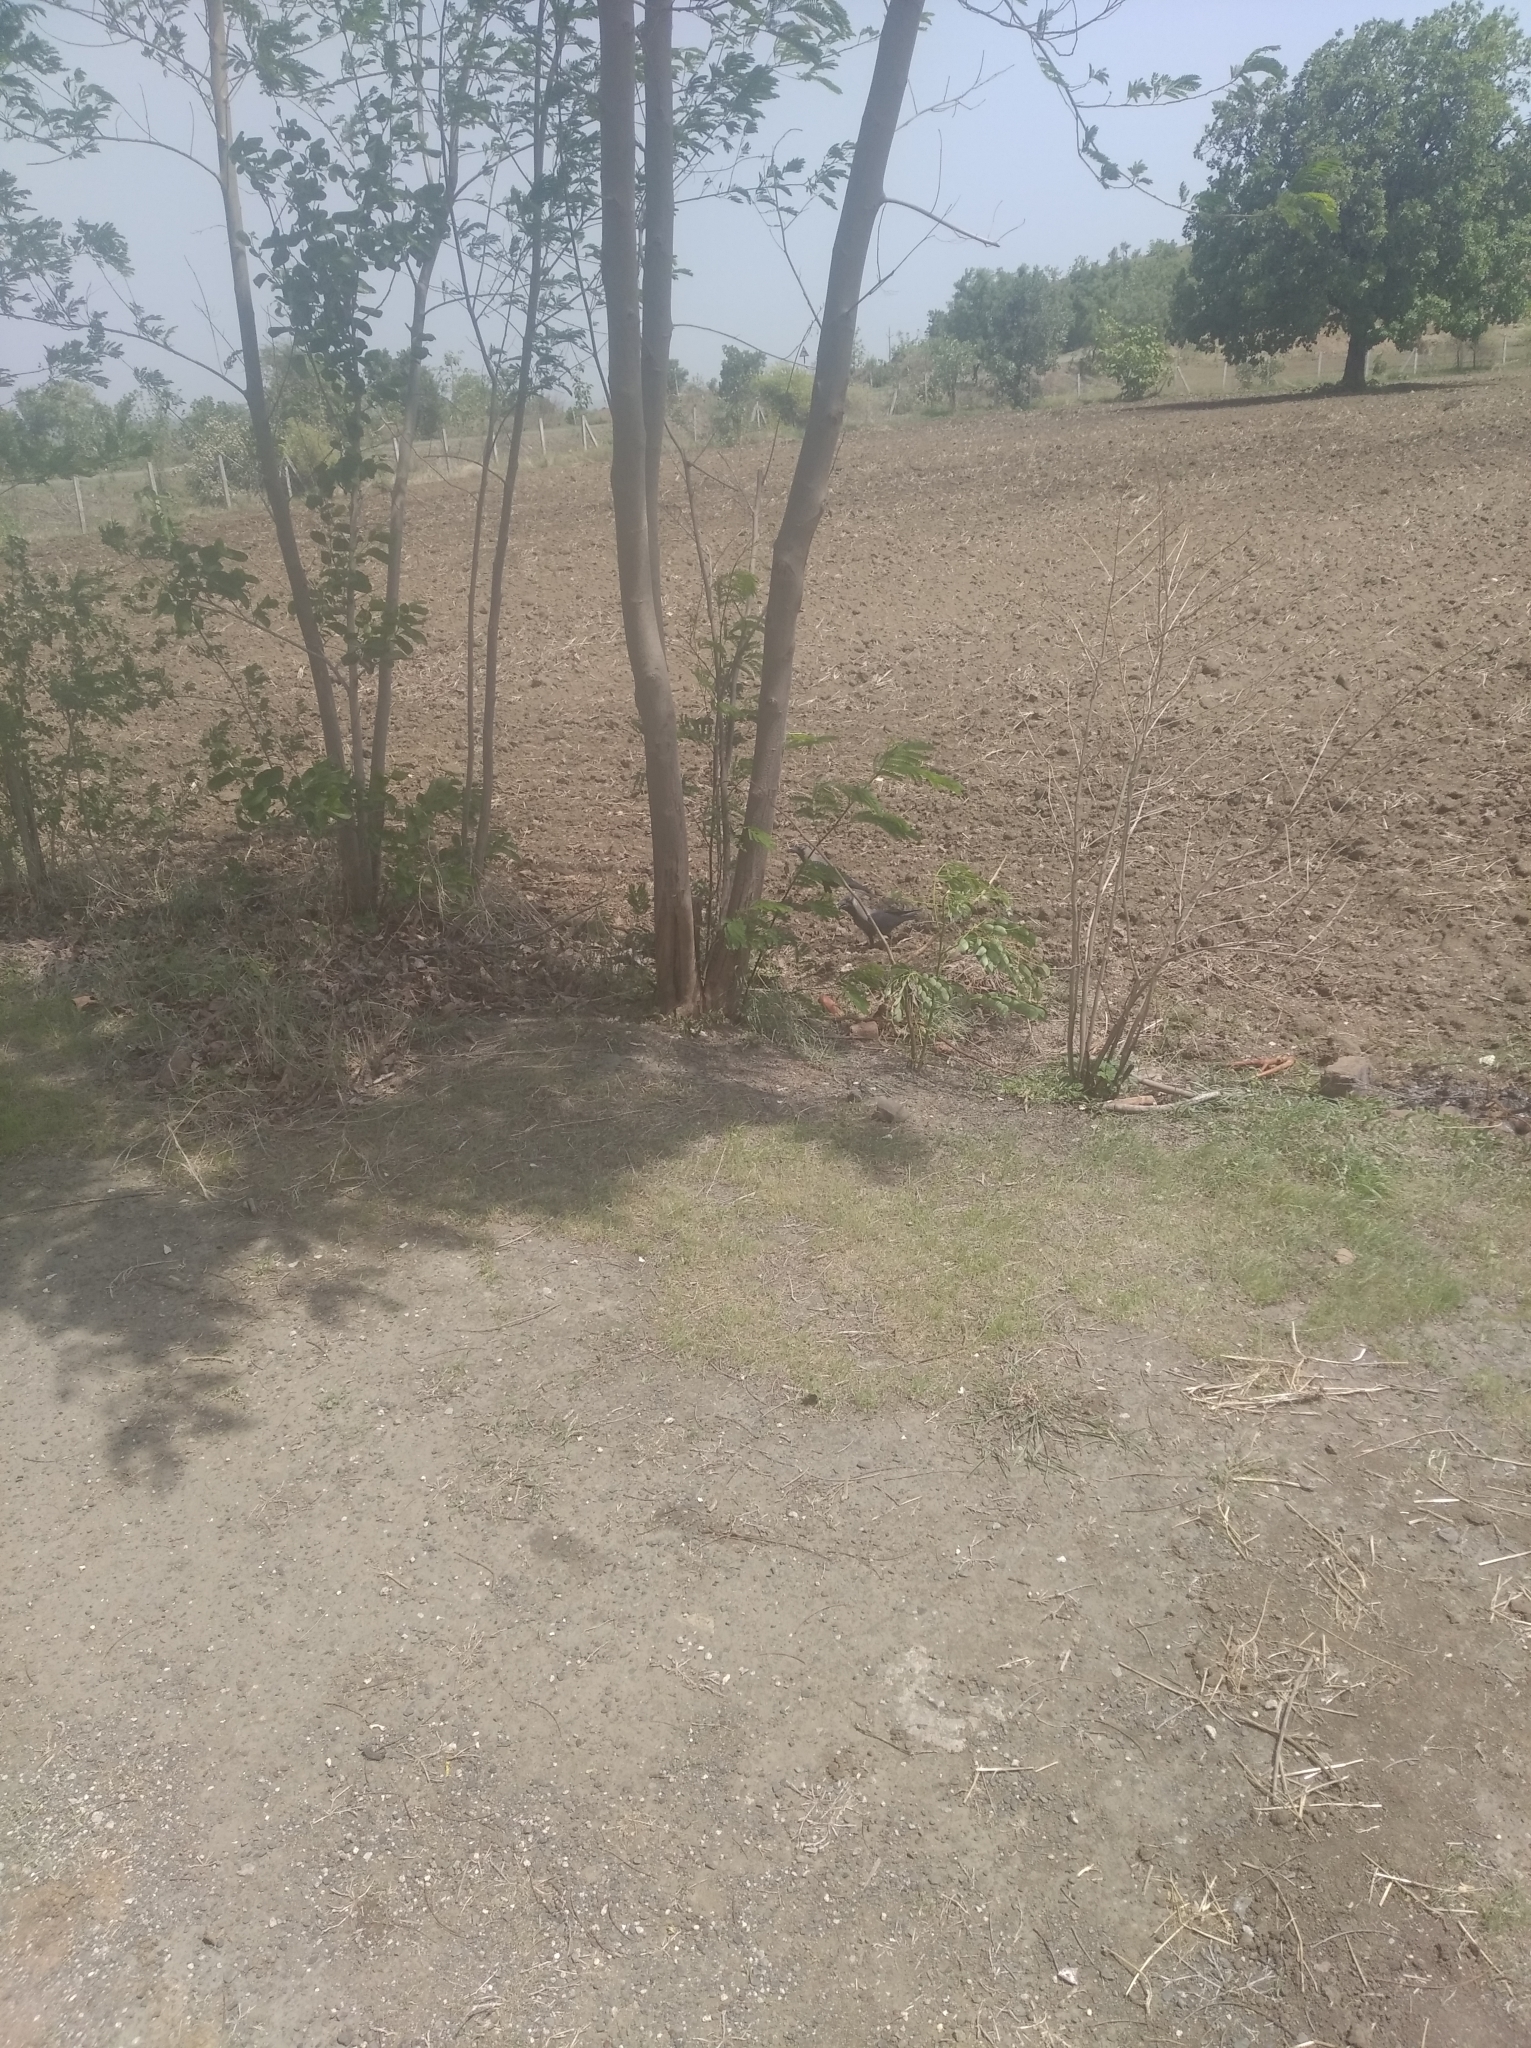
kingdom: Animalia
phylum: Chordata
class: Aves
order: Passeriformes
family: Corvidae
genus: Corvus
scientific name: Corvus splendens
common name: House crow
